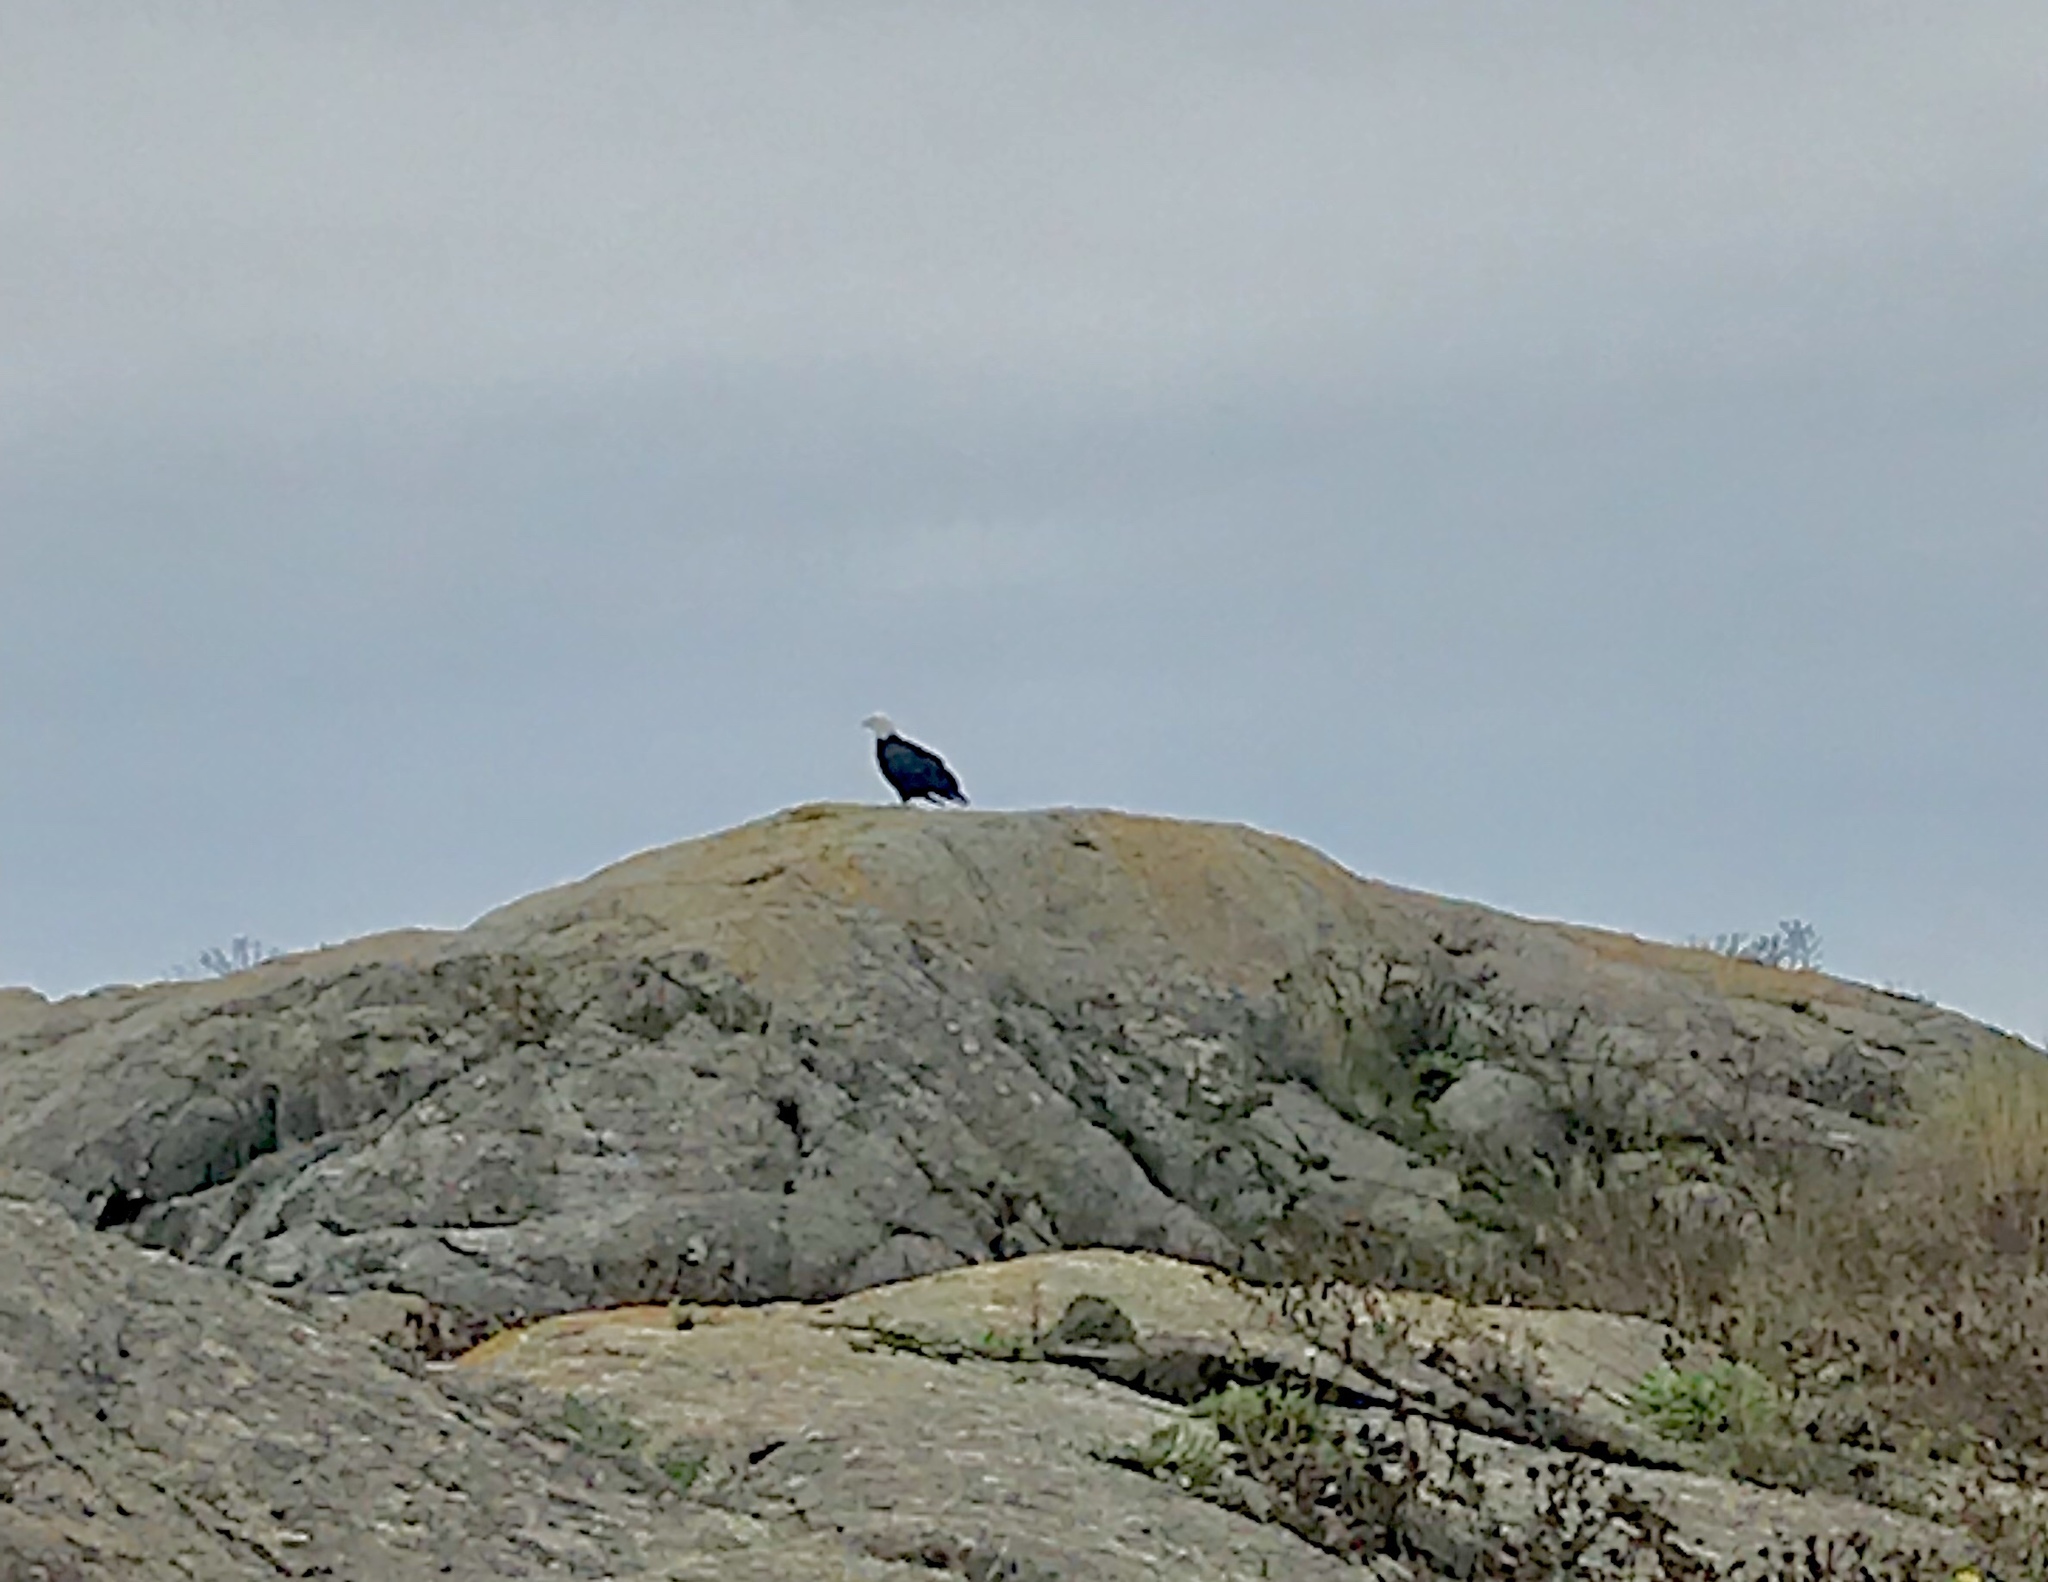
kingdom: Animalia
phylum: Chordata
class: Aves
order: Accipitriformes
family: Accipitridae
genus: Haliaeetus
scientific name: Haliaeetus leucocephalus
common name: Bald eagle
